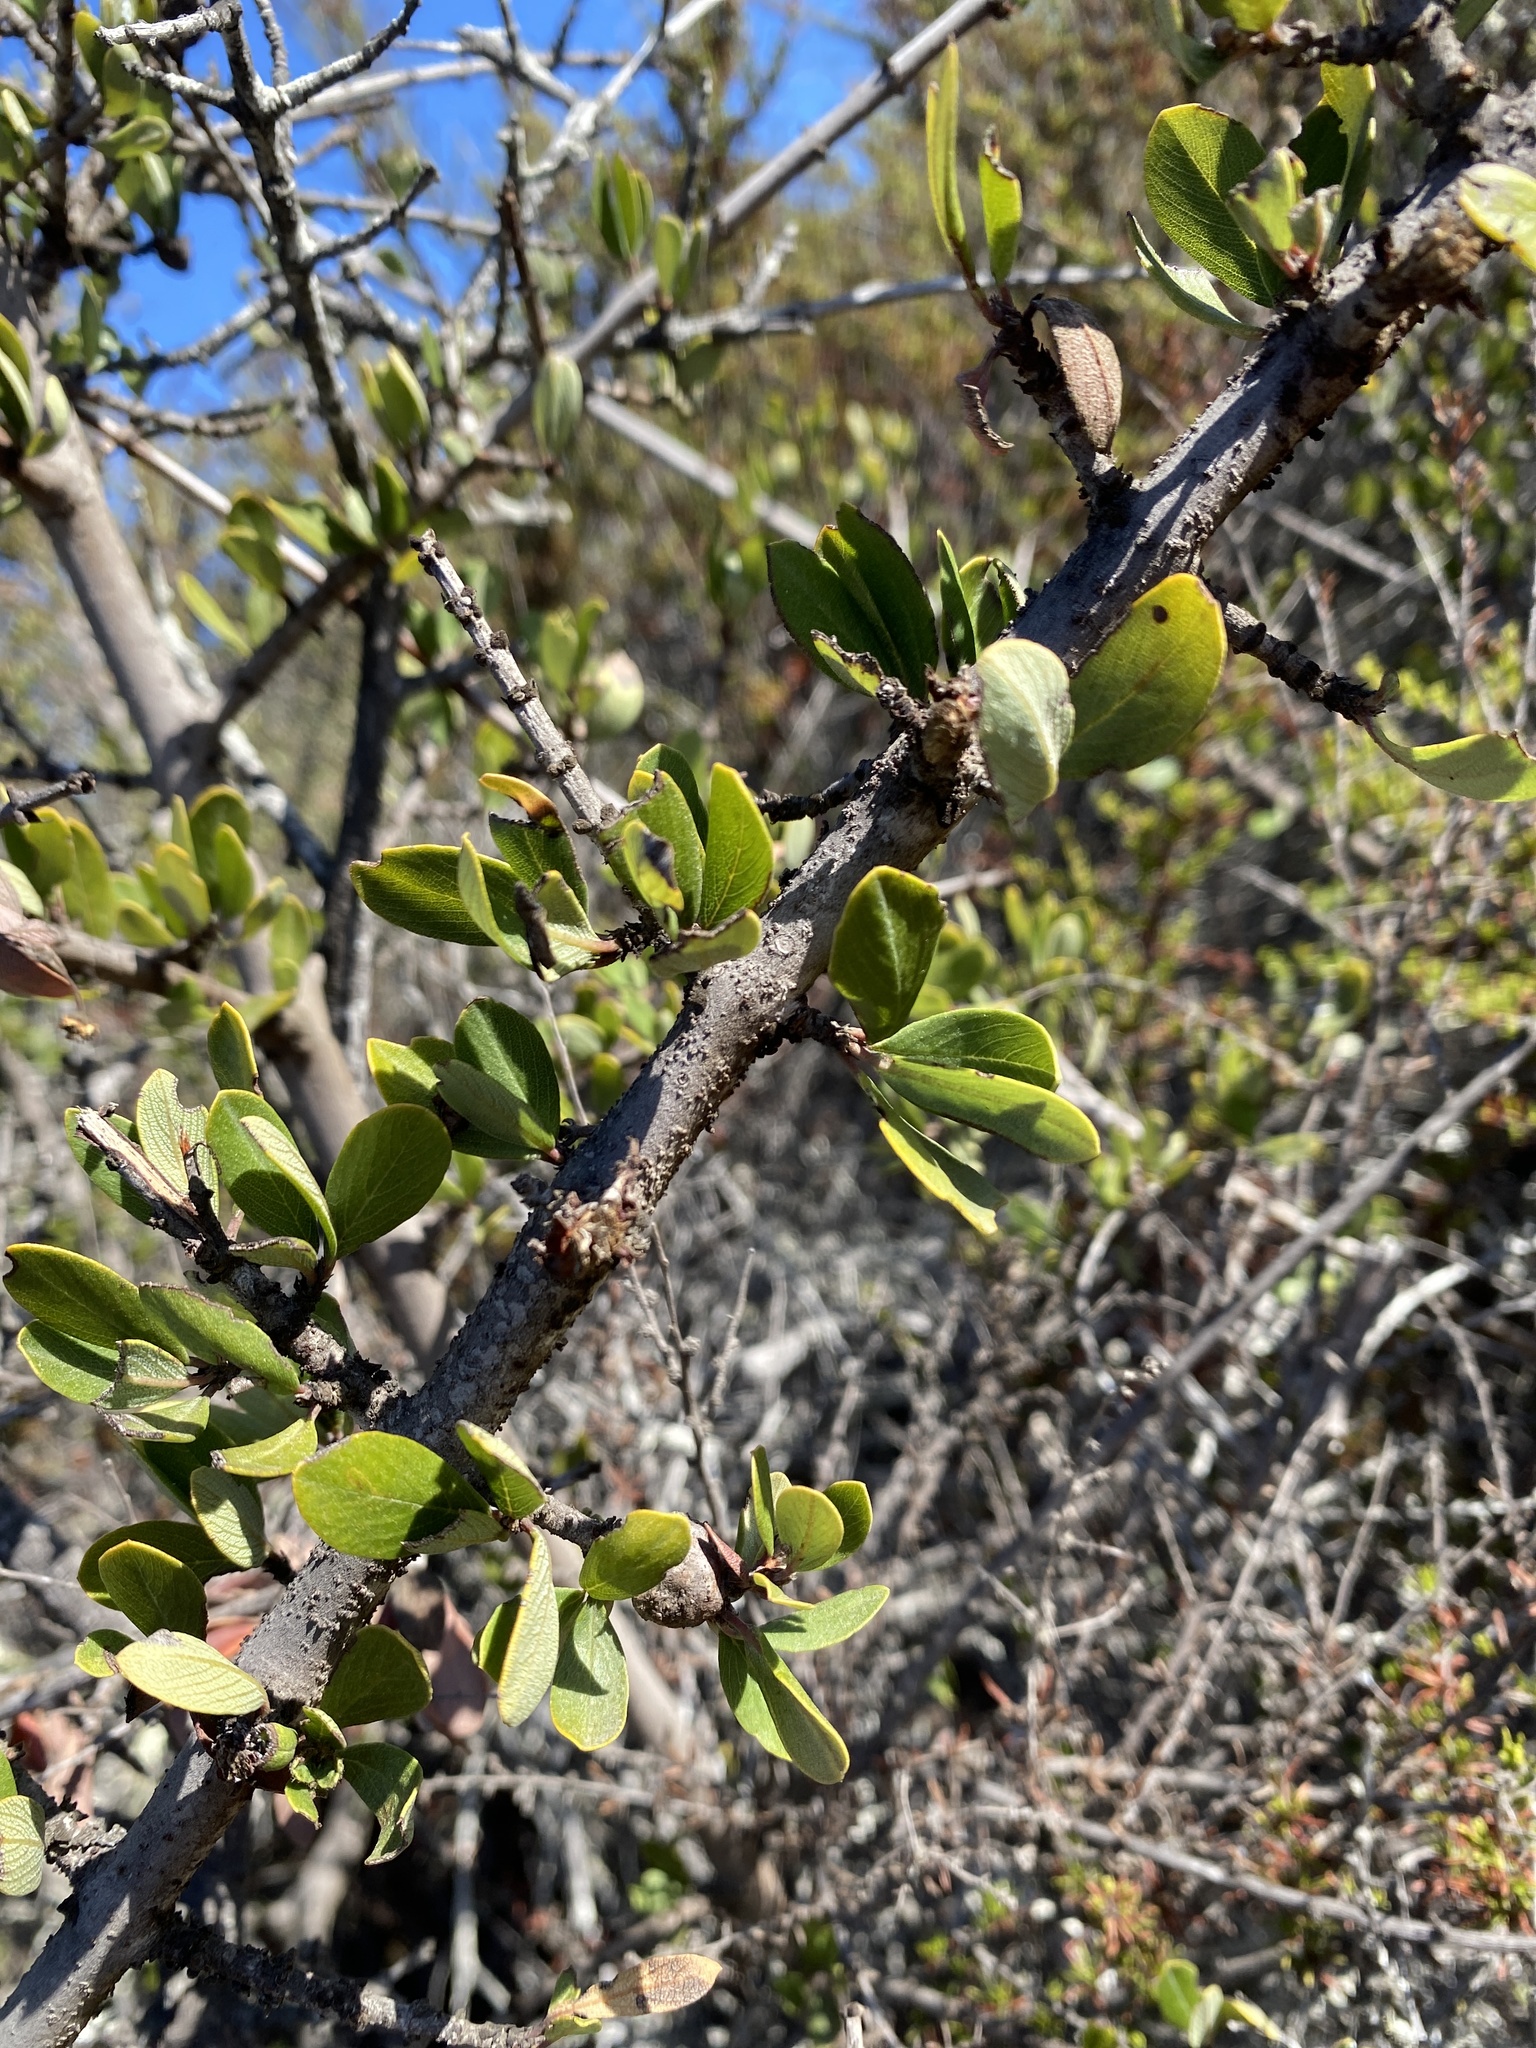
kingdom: Plantae
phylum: Tracheophyta
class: Magnoliopsida
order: Asterales
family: Asteraceae
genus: Baccharis
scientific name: Baccharis pilularis
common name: Coyotebrush
